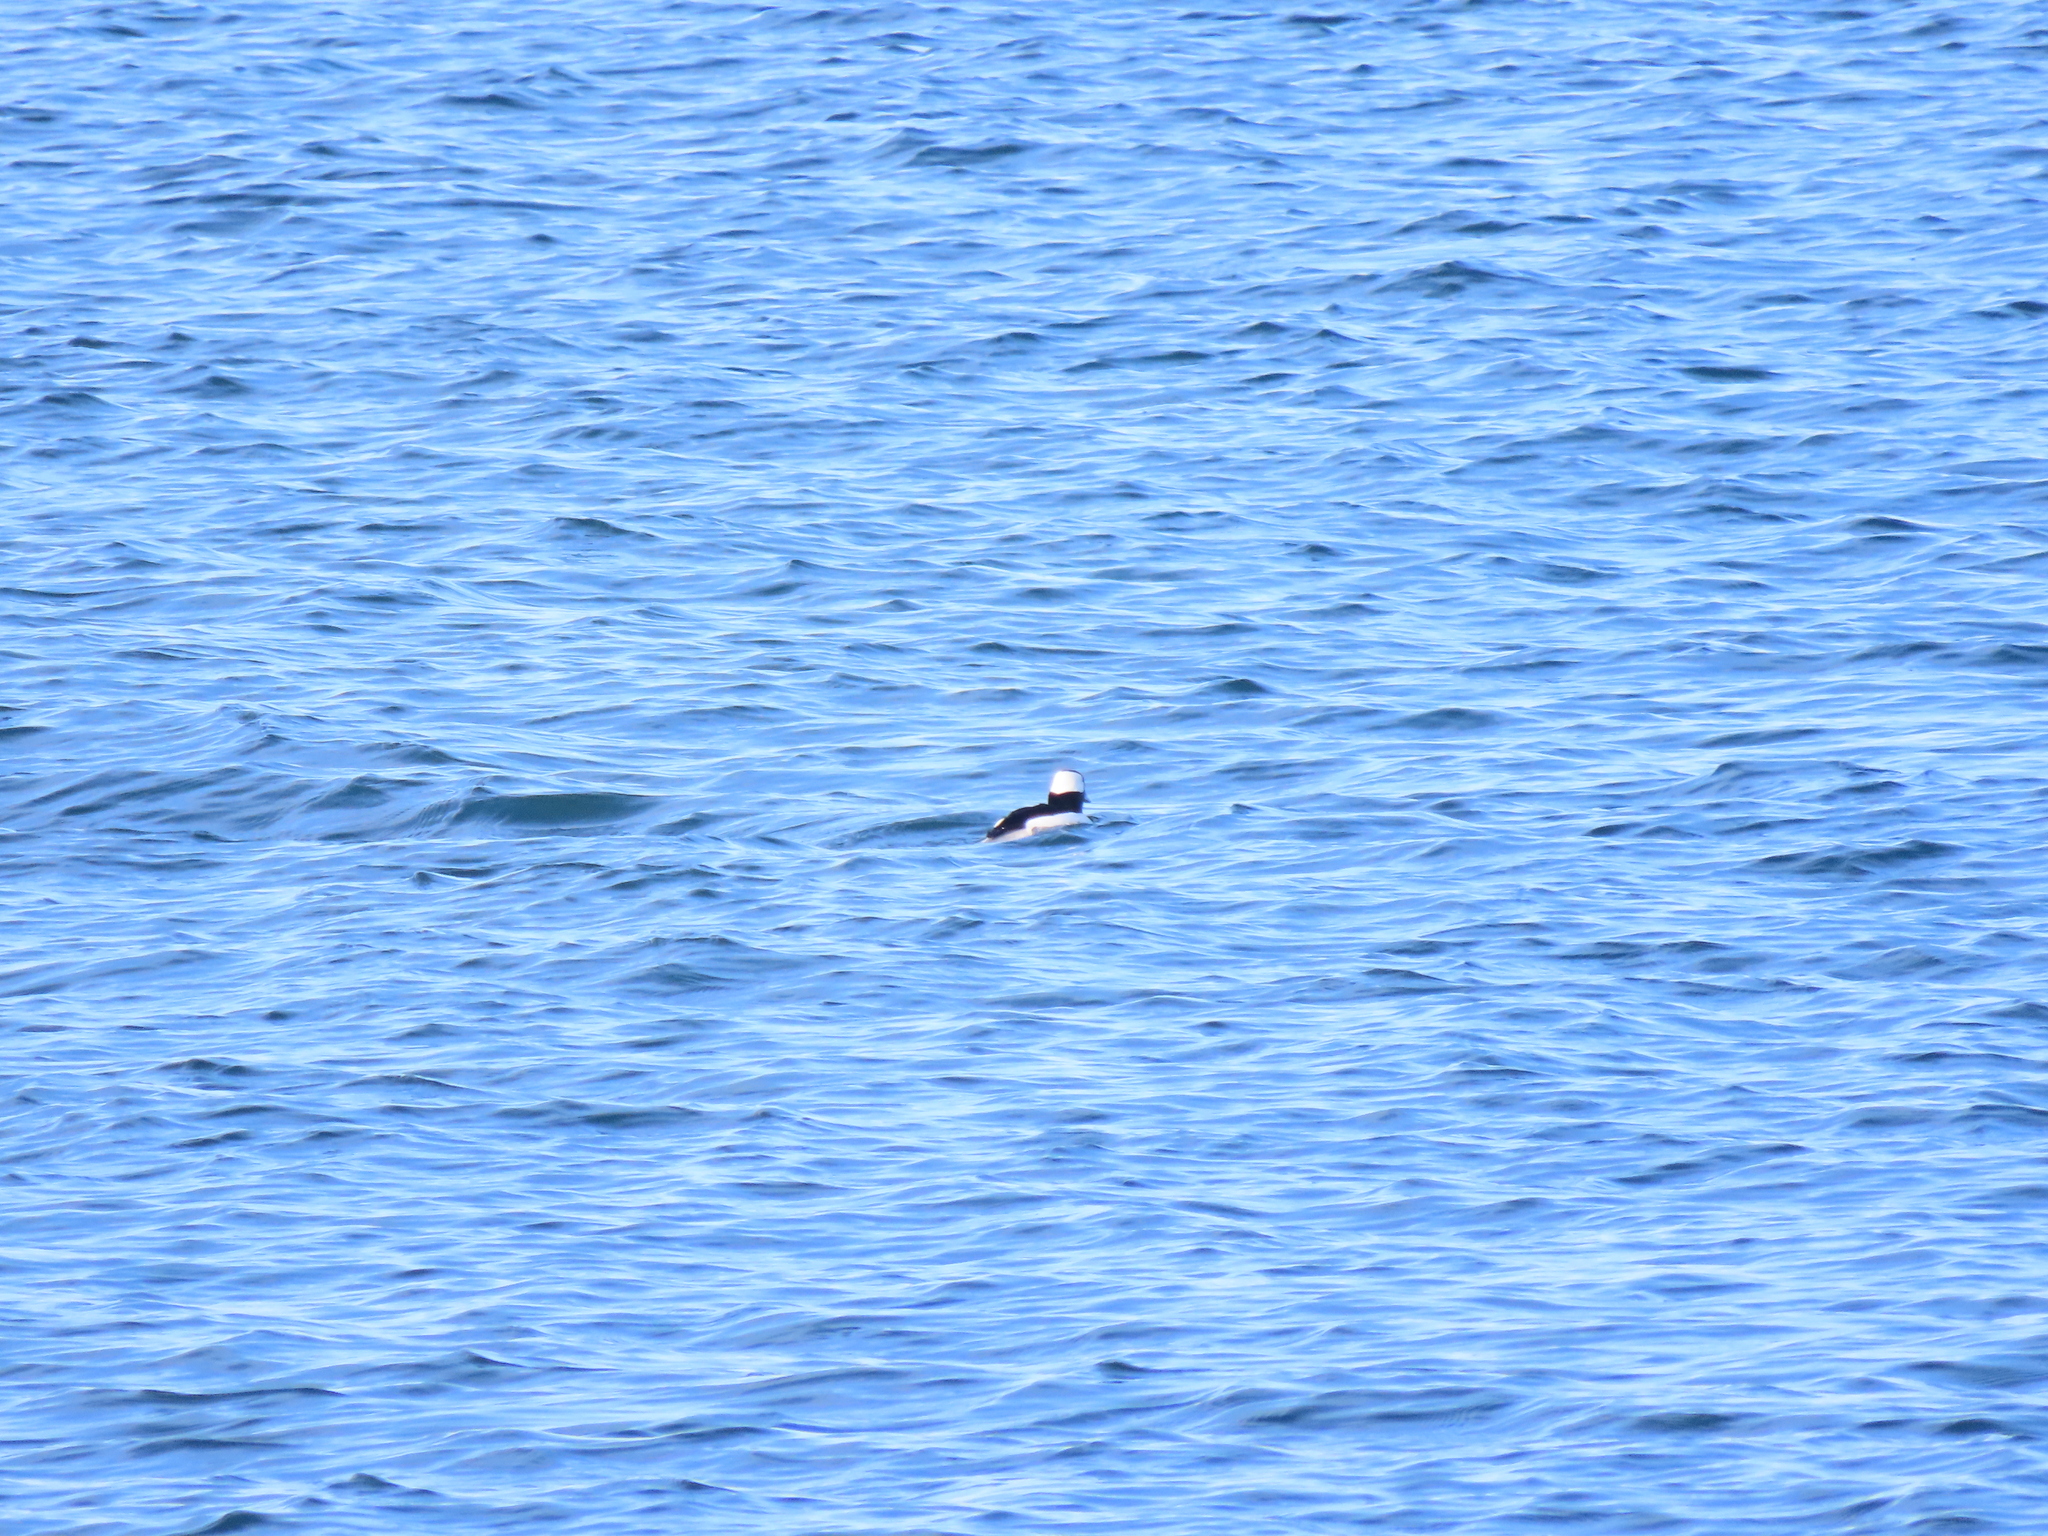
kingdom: Animalia
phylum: Chordata
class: Aves
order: Anseriformes
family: Anatidae
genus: Bucephala
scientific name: Bucephala albeola
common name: Bufflehead
